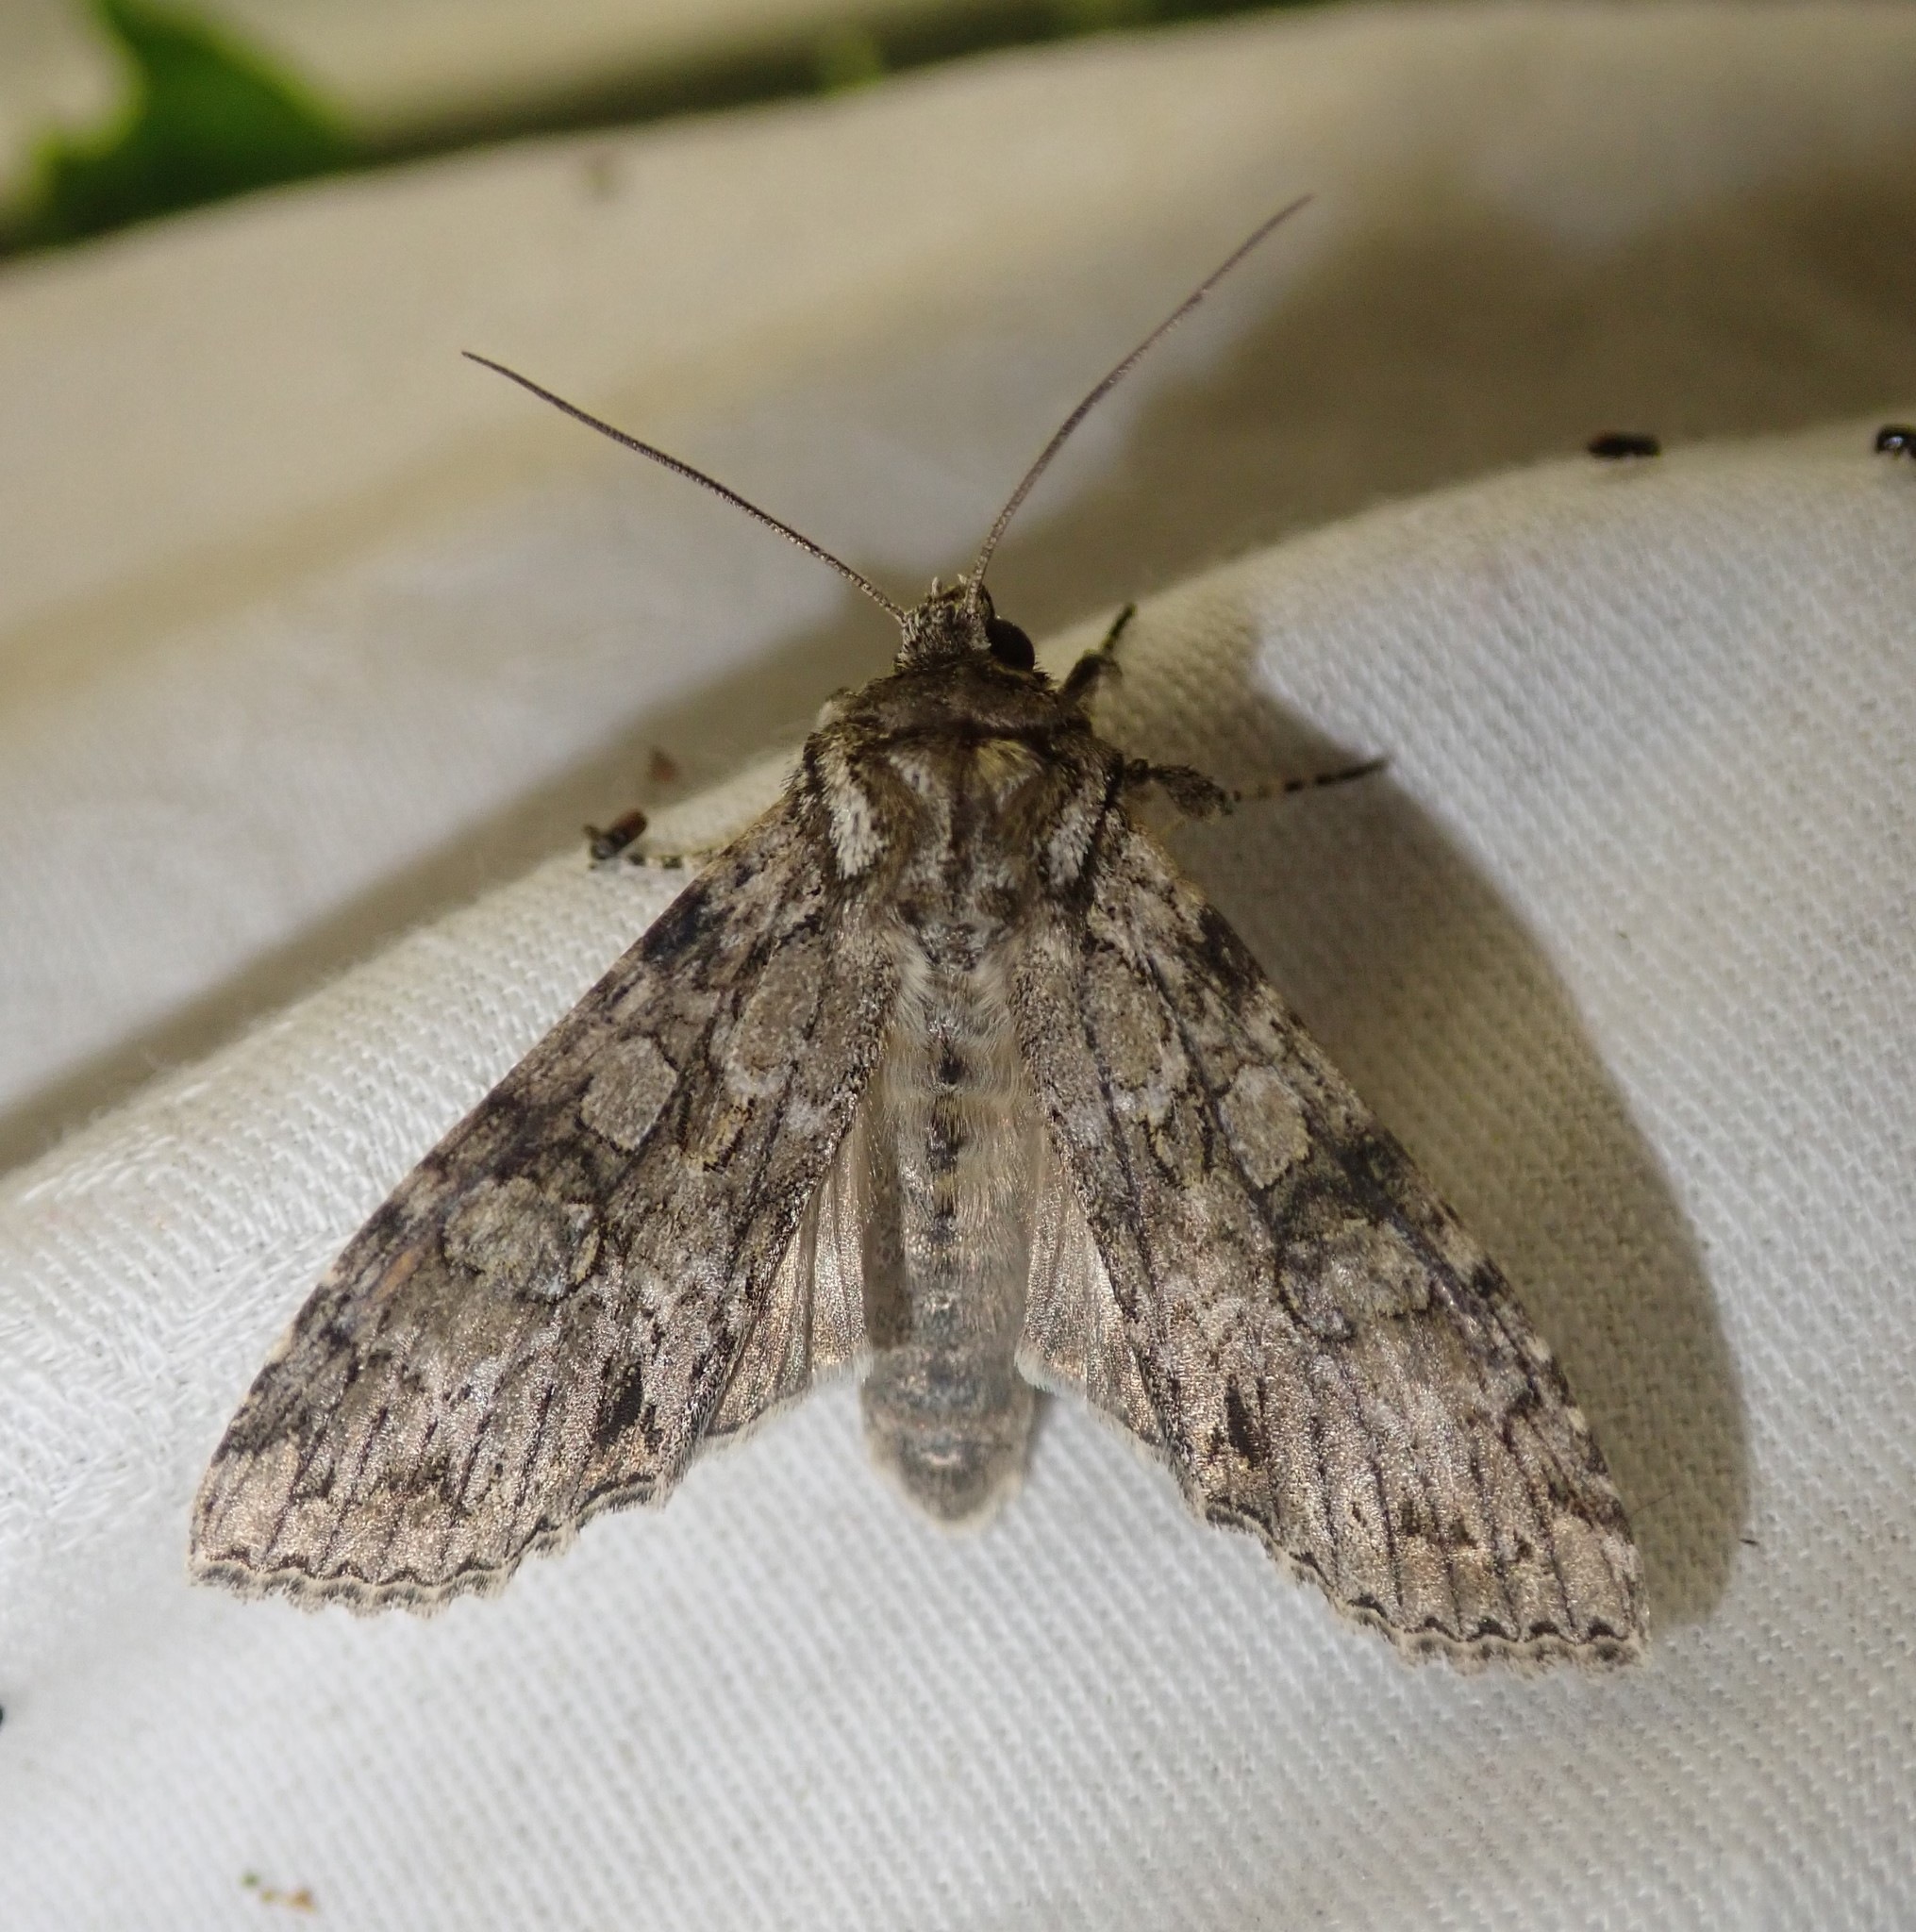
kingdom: Animalia
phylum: Arthropoda
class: Insecta
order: Lepidoptera
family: Noctuidae
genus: Polia
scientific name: Polia nebulosa
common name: Grey arches
